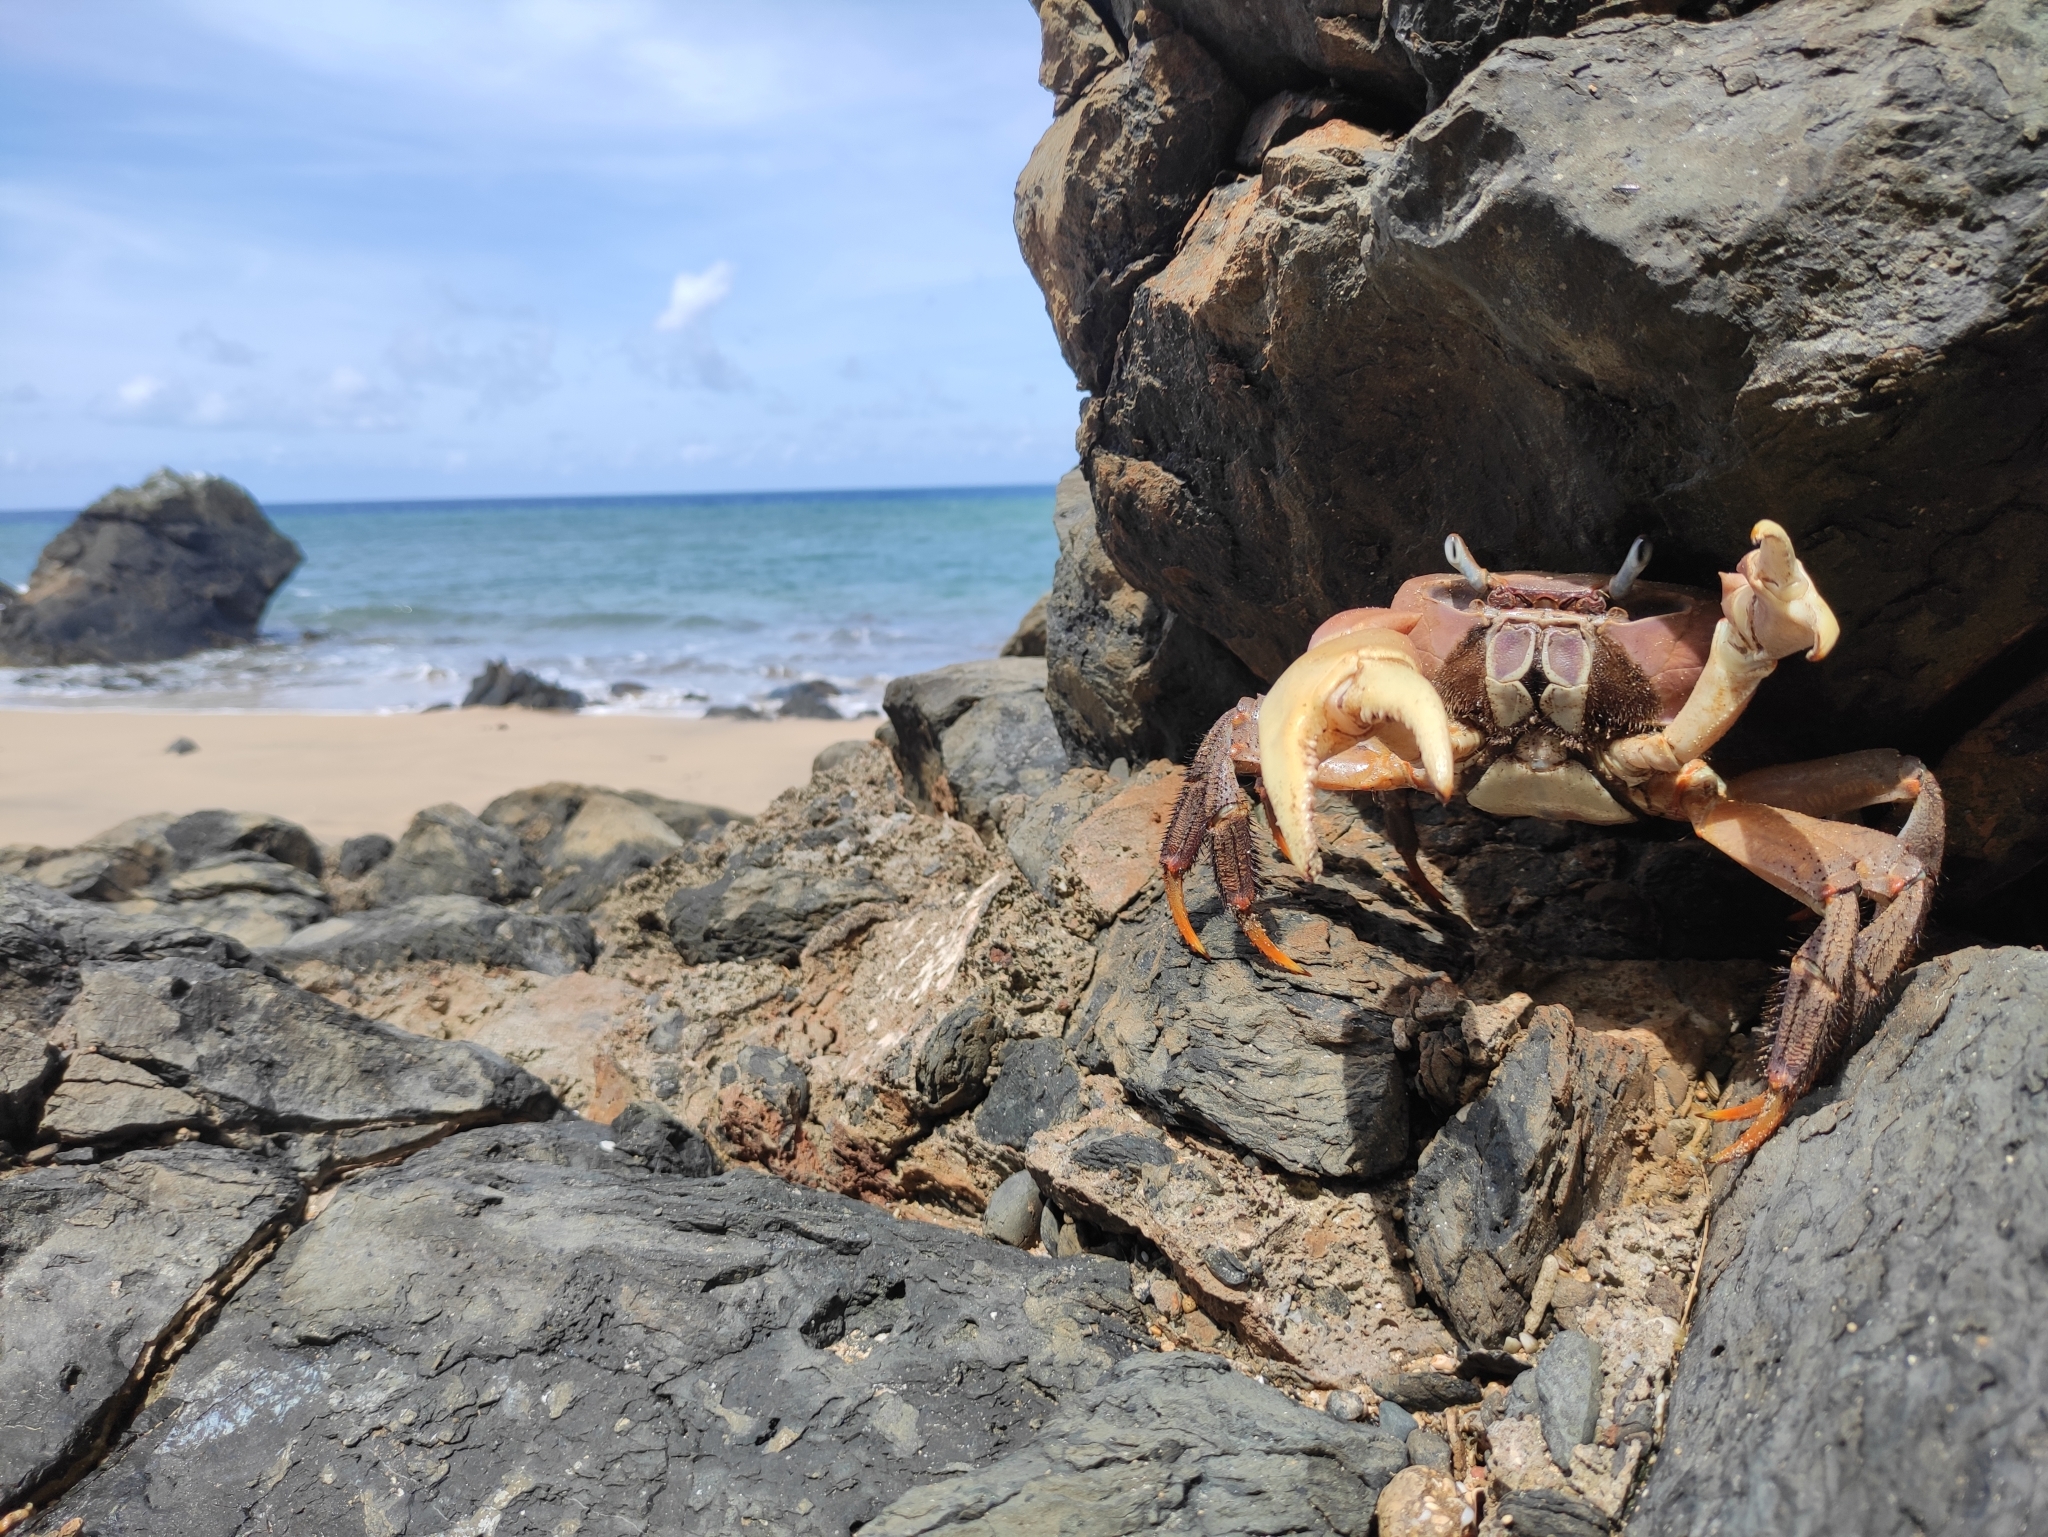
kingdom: Animalia
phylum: Arthropoda
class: Malacostraca
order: Decapoda
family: Gecarcinidae
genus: Cardisoma
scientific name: Cardisoma carnifex
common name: Brown land crab
